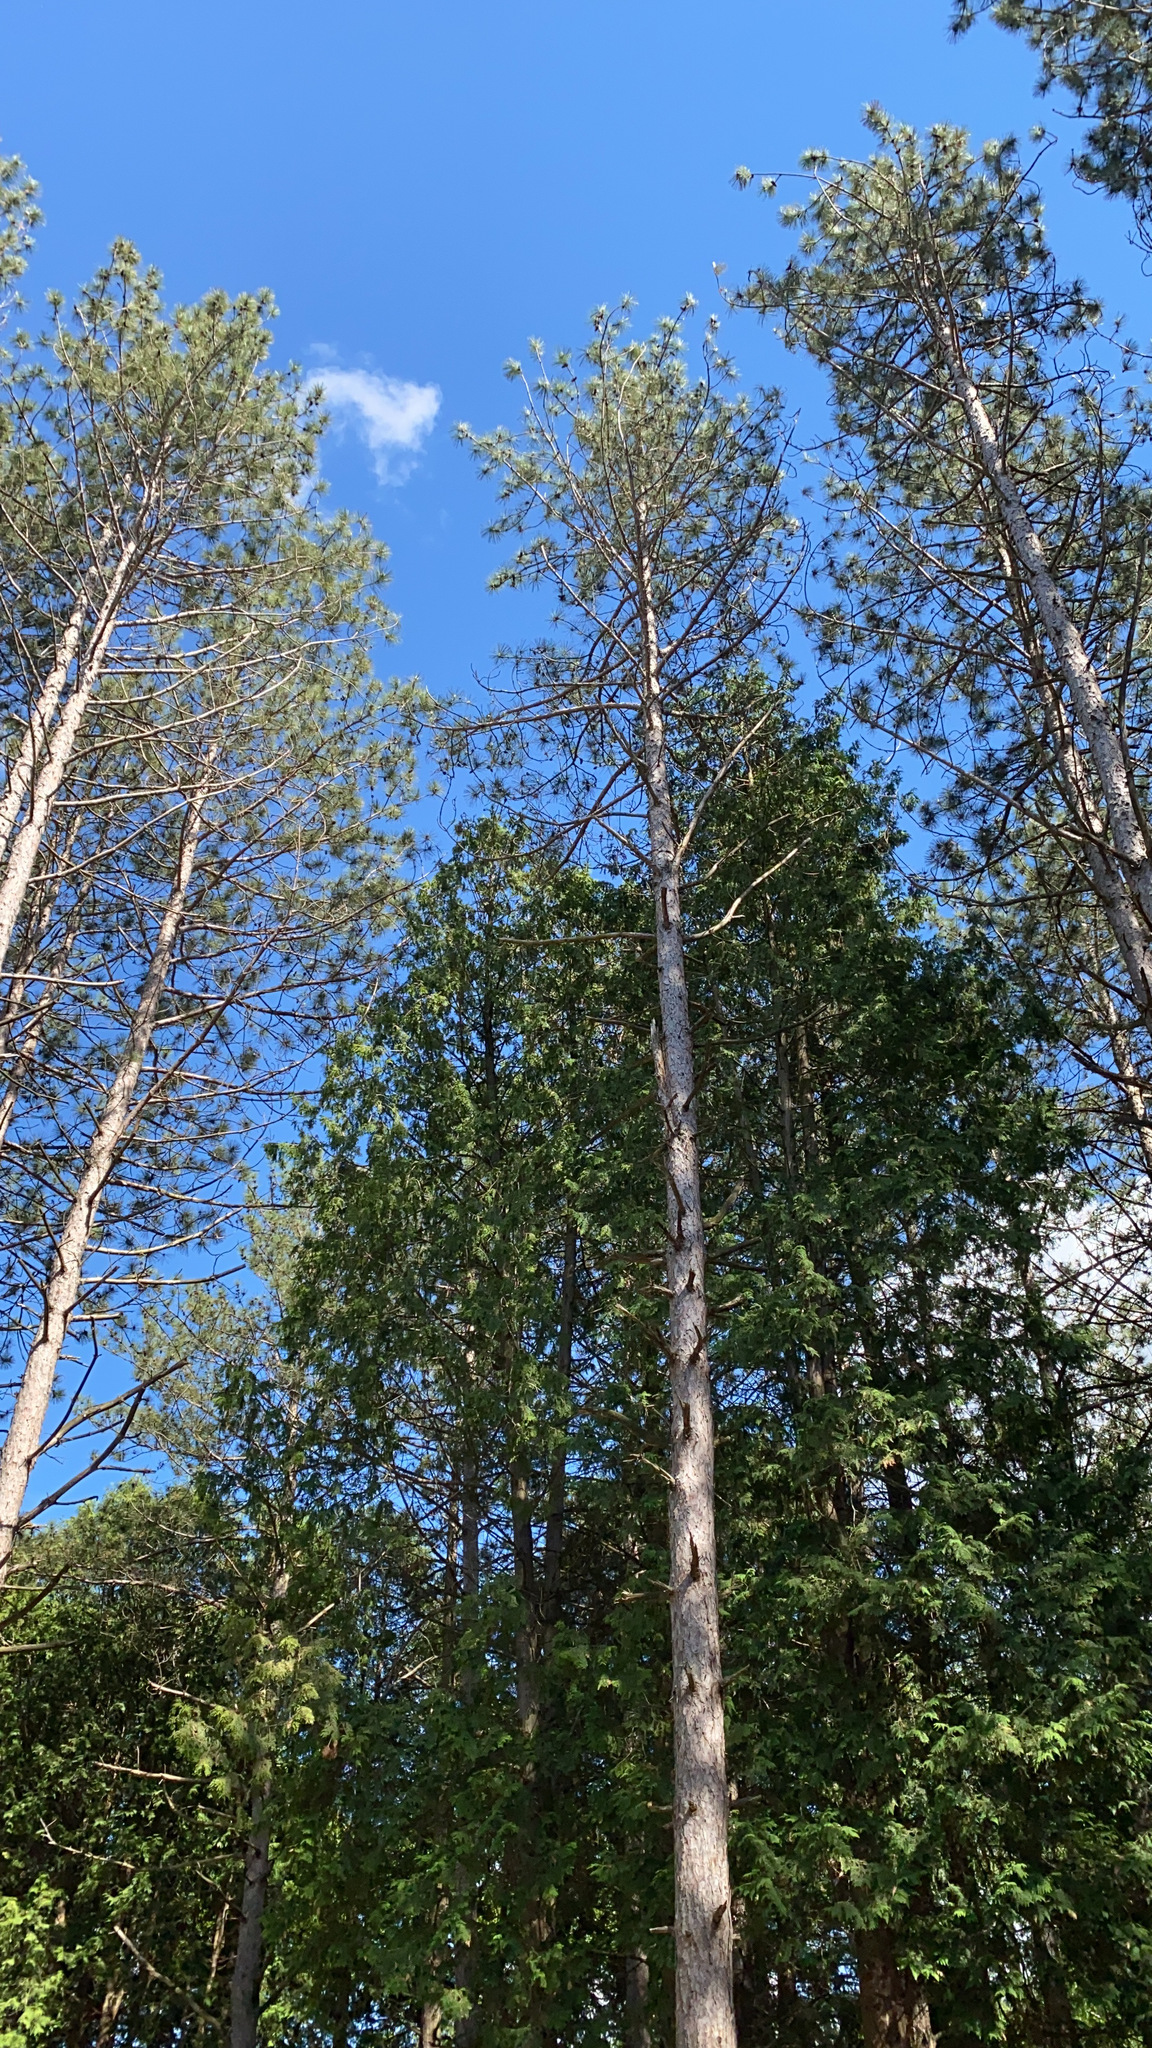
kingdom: Plantae
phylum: Tracheophyta
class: Pinopsida
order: Pinales
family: Pinaceae
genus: Pinus
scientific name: Pinus resinosa
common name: Norway pine
